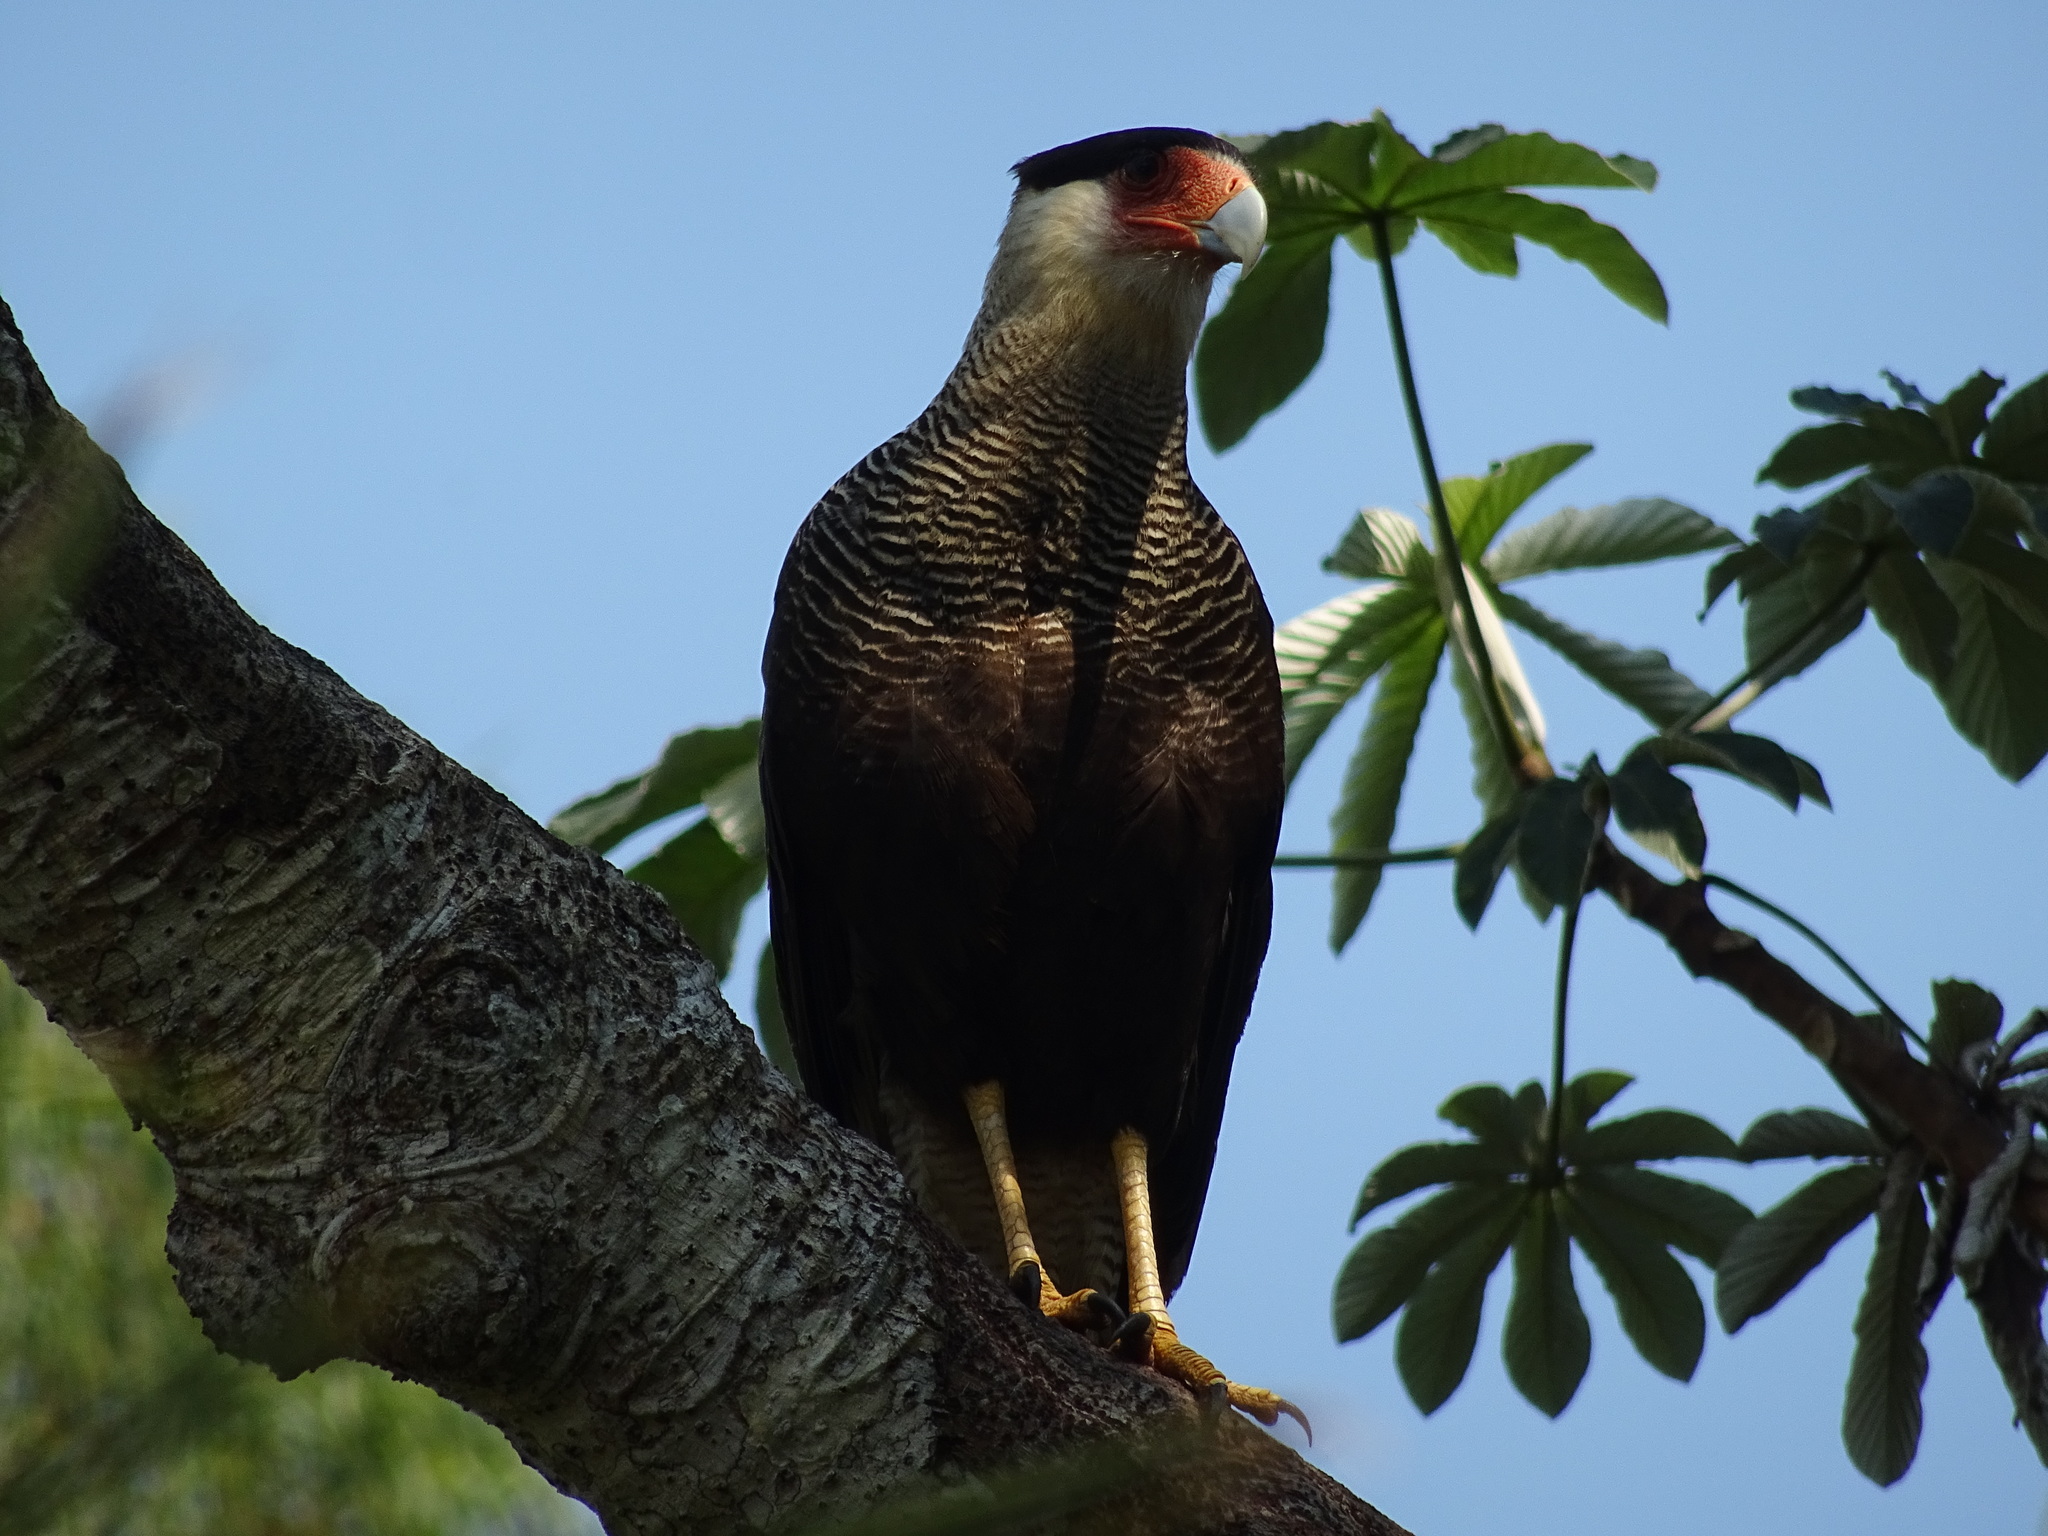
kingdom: Animalia
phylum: Chordata
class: Aves
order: Falconiformes
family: Falconidae
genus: Caracara
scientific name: Caracara plancus
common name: Southern caracara
